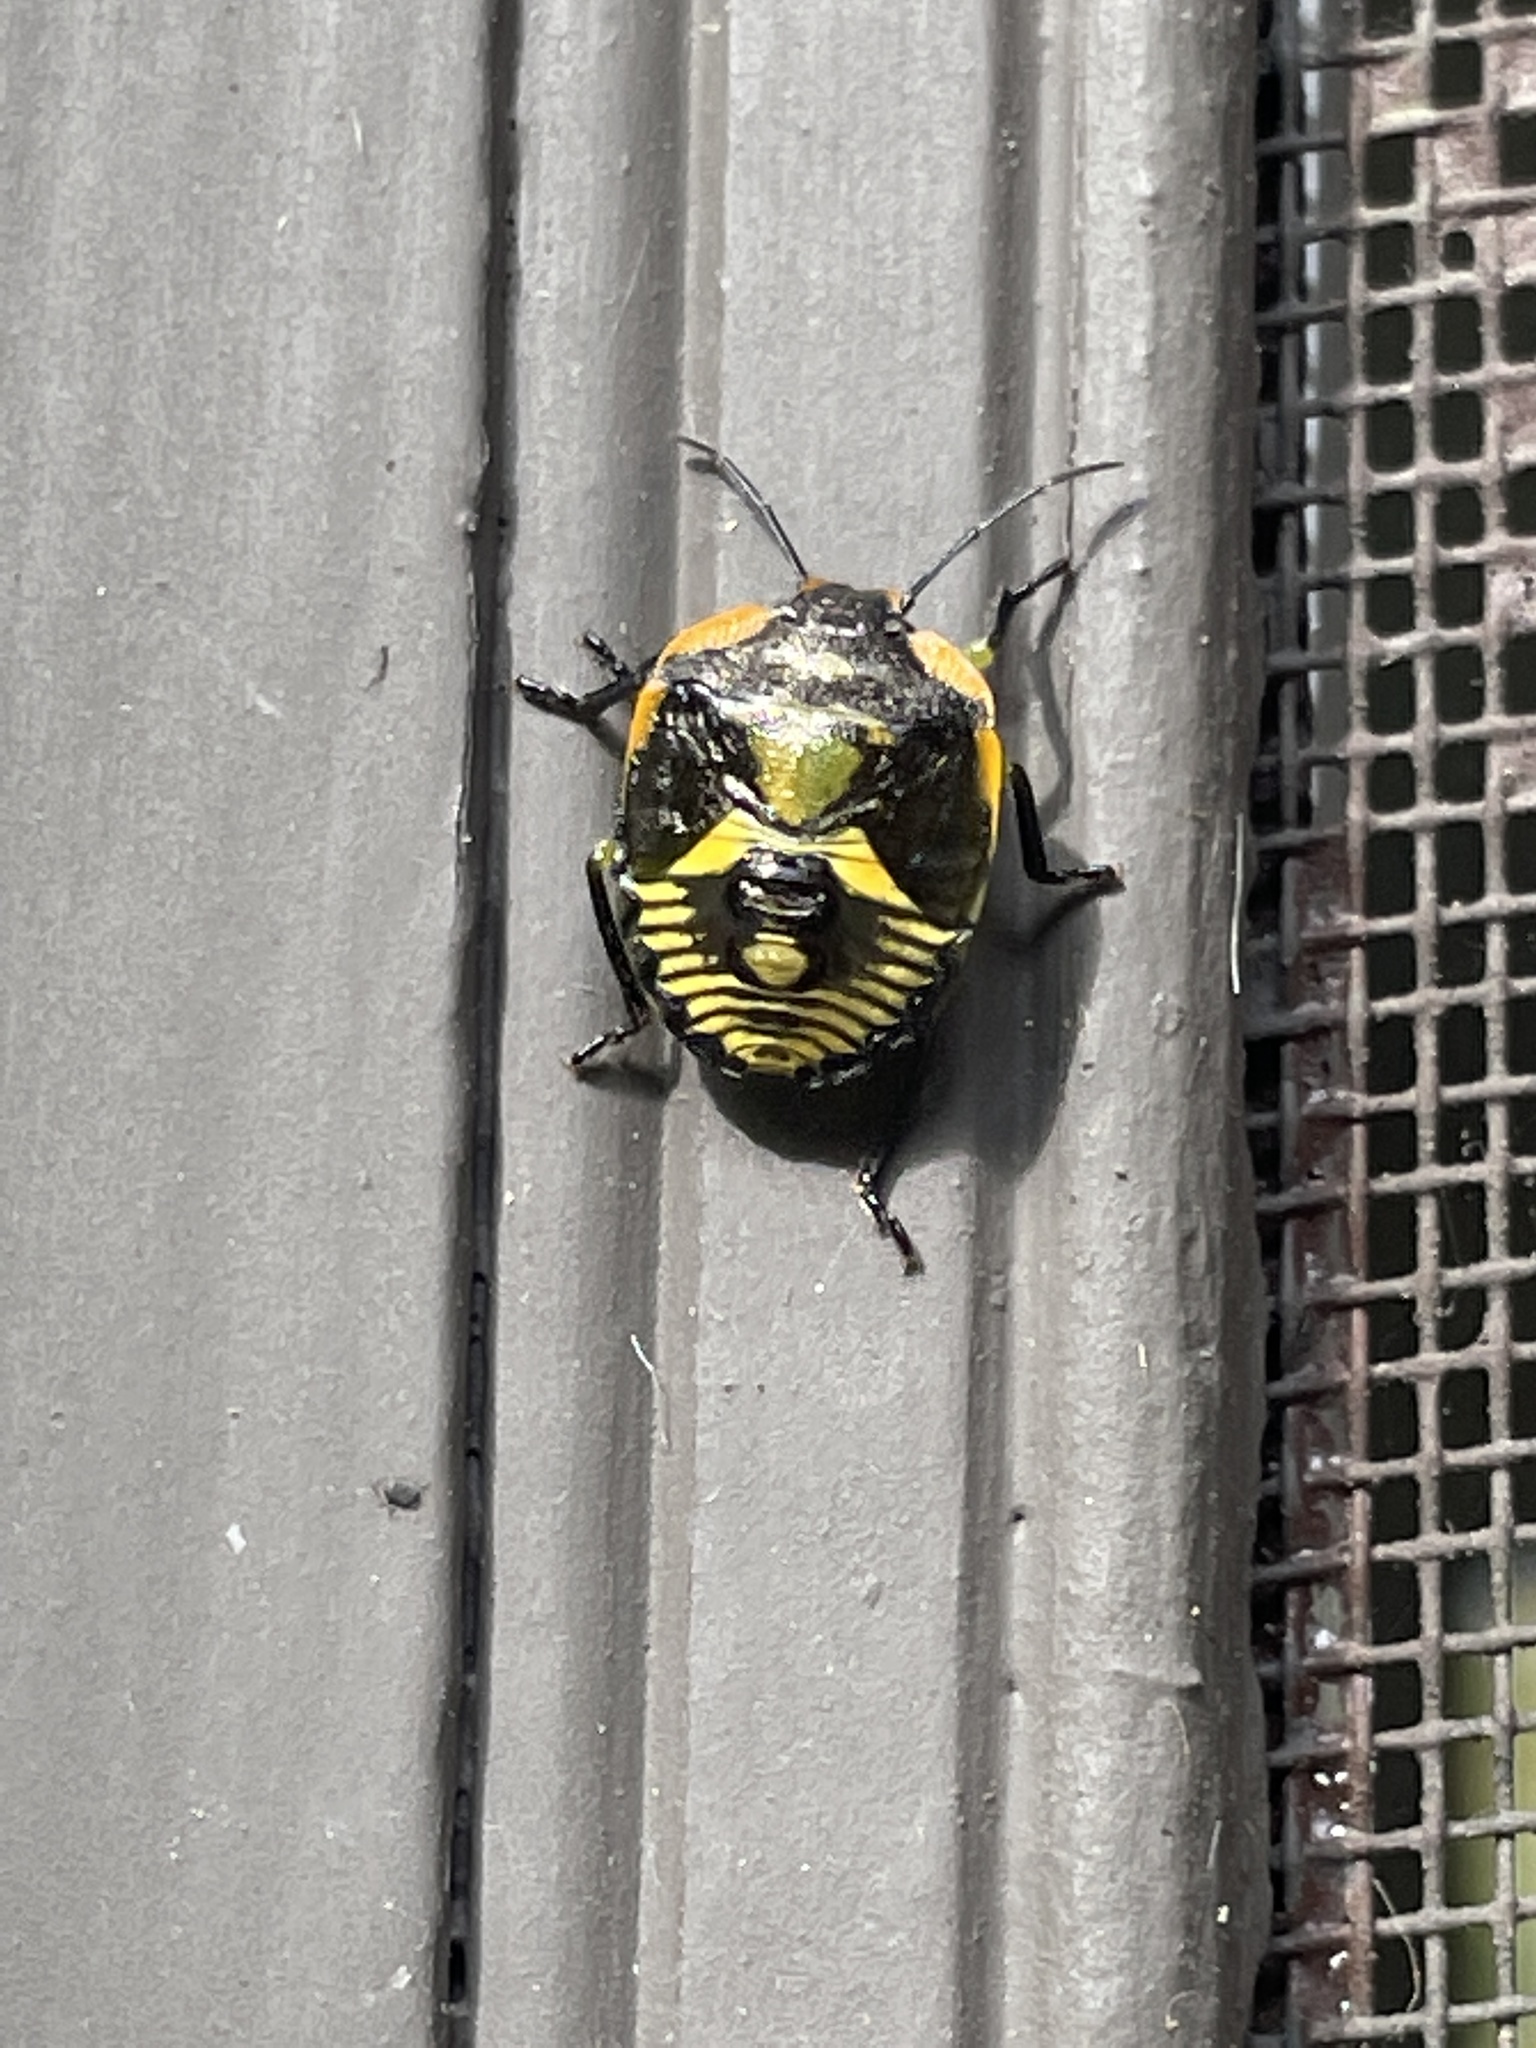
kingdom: Animalia
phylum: Arthropoda
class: Insecta
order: Hemiptera
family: Pentatomidae
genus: Chinavia
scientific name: Chinavia hilaris
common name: Green stink bug
